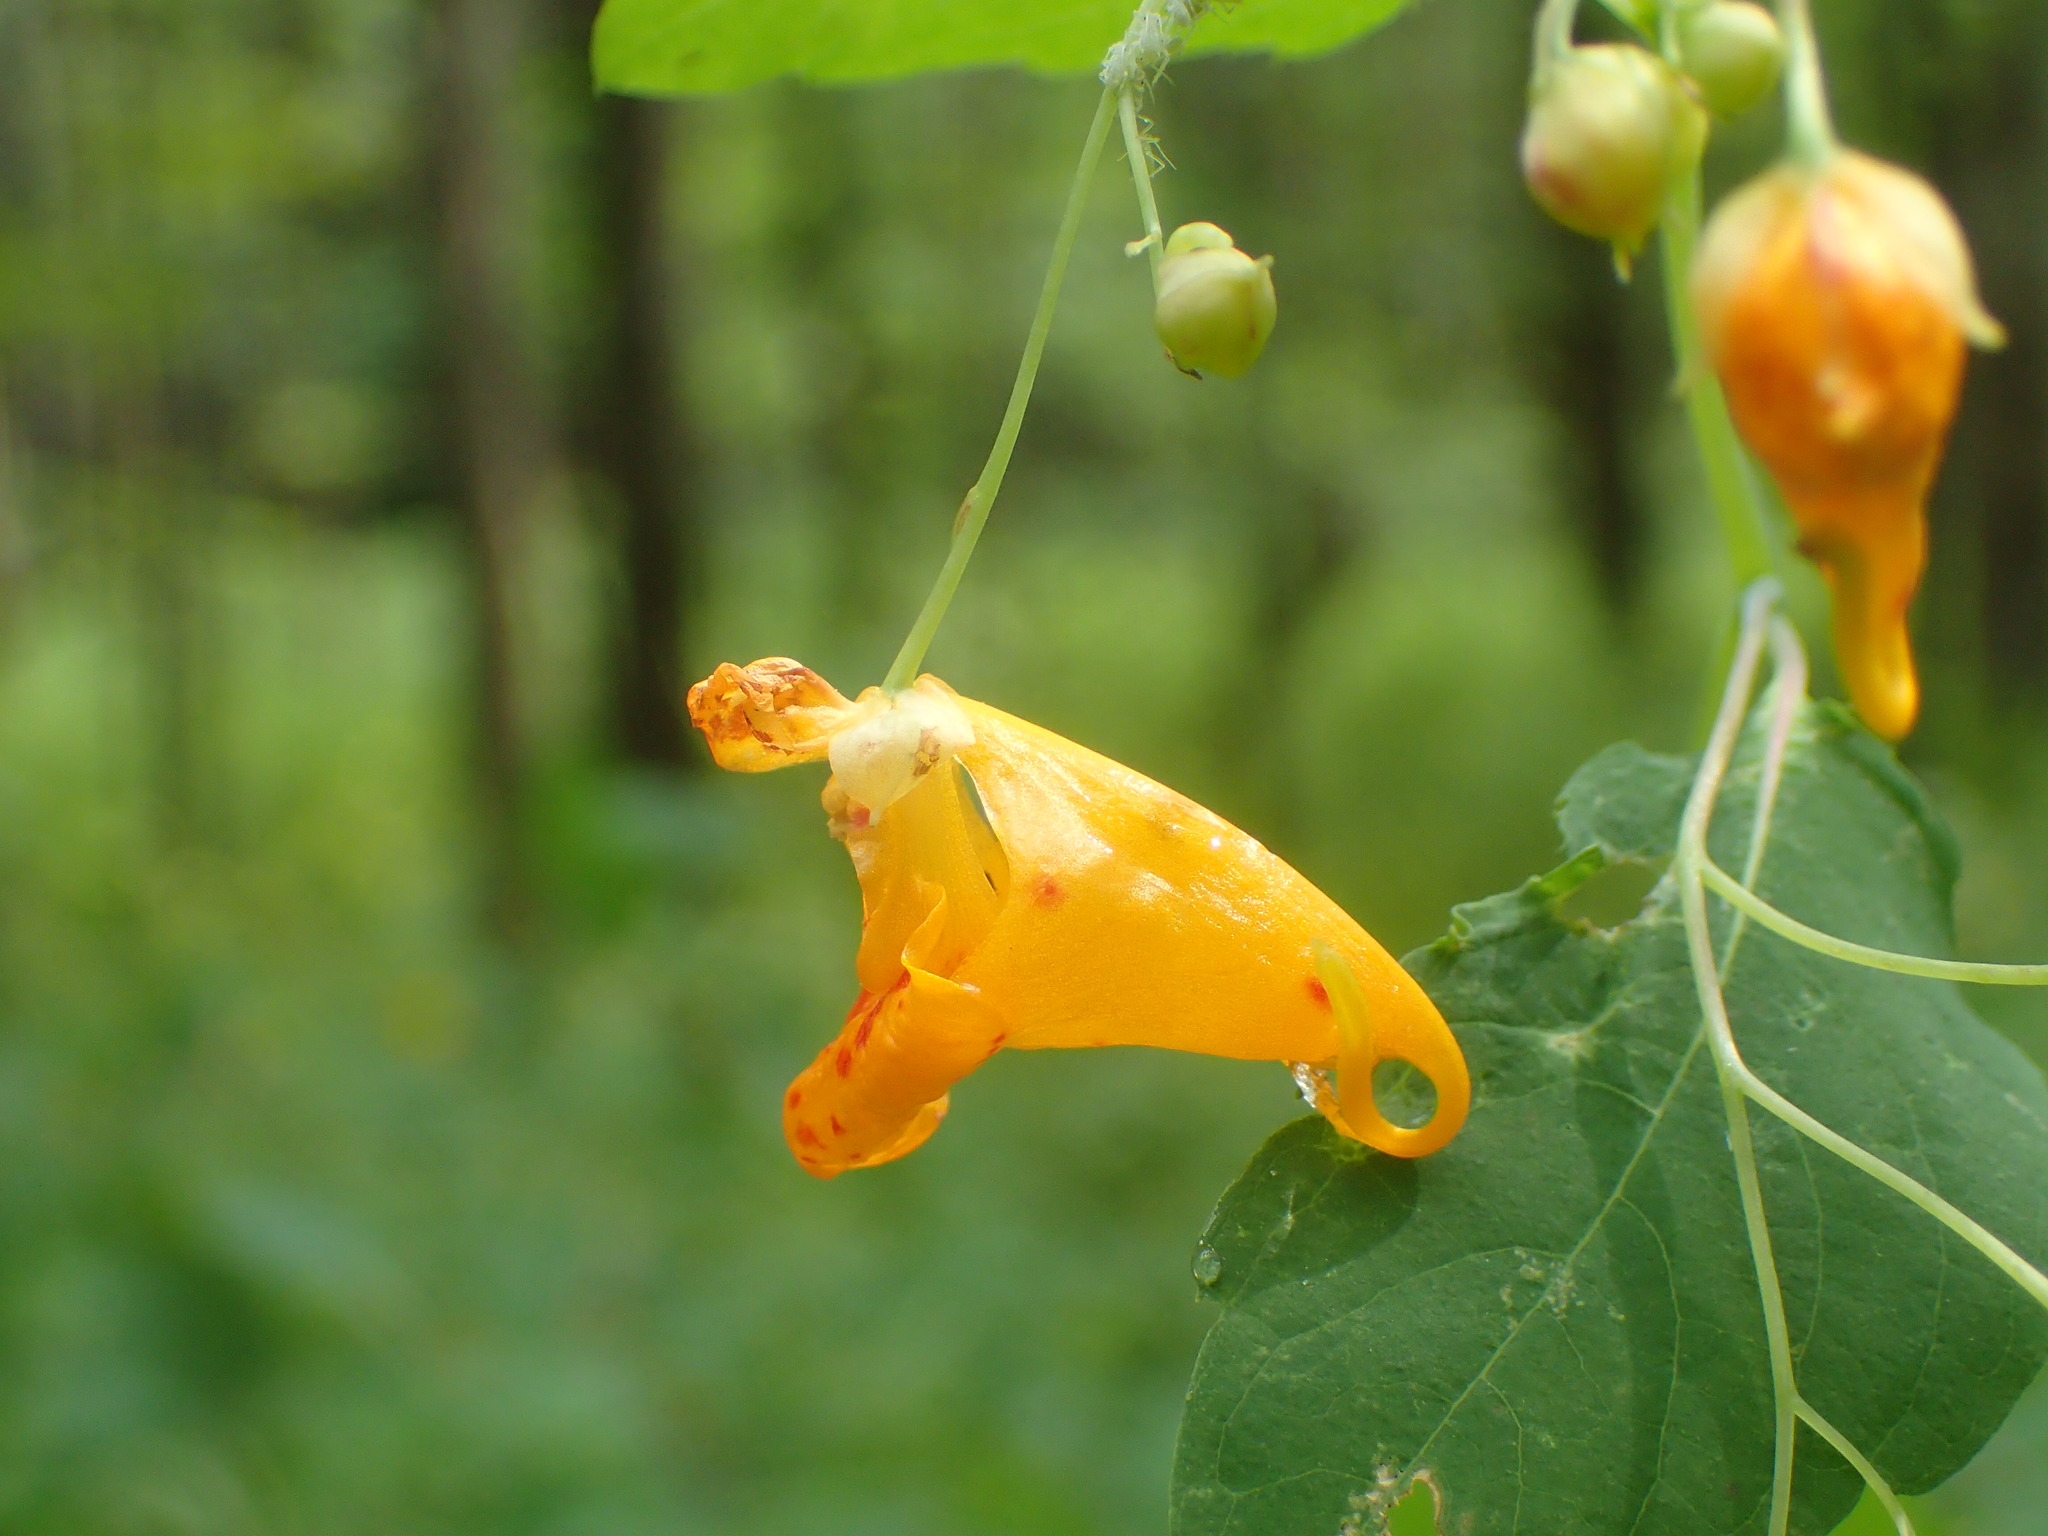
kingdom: Plantae
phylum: Tracheophyta
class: Magnoliopsida
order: Ericales
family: Balsaminaceae
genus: Impatiens
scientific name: Impatiens capensis
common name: Orange balsam
